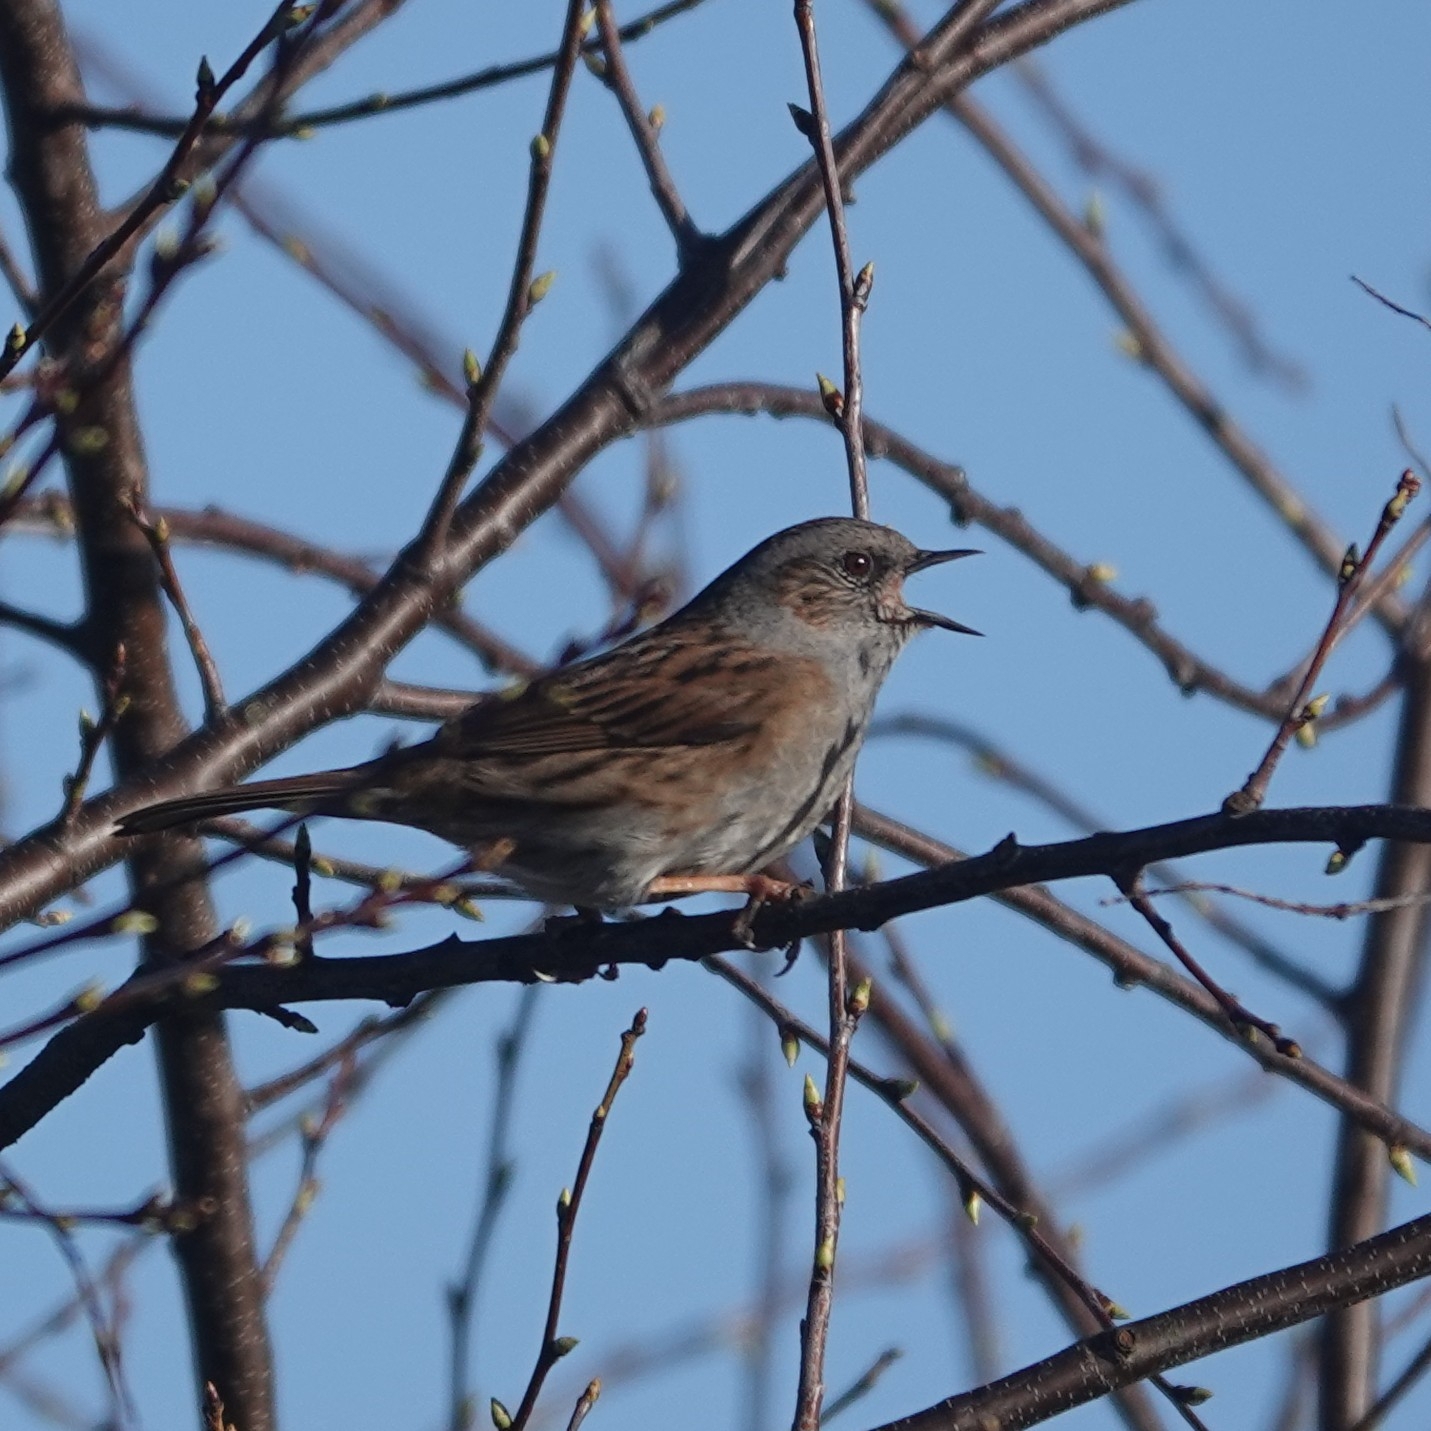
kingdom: Animalia
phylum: Chordata
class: Aves
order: Passeriformes
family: Prunellidae
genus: Prunella
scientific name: Prunella modularis
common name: Dunnock
